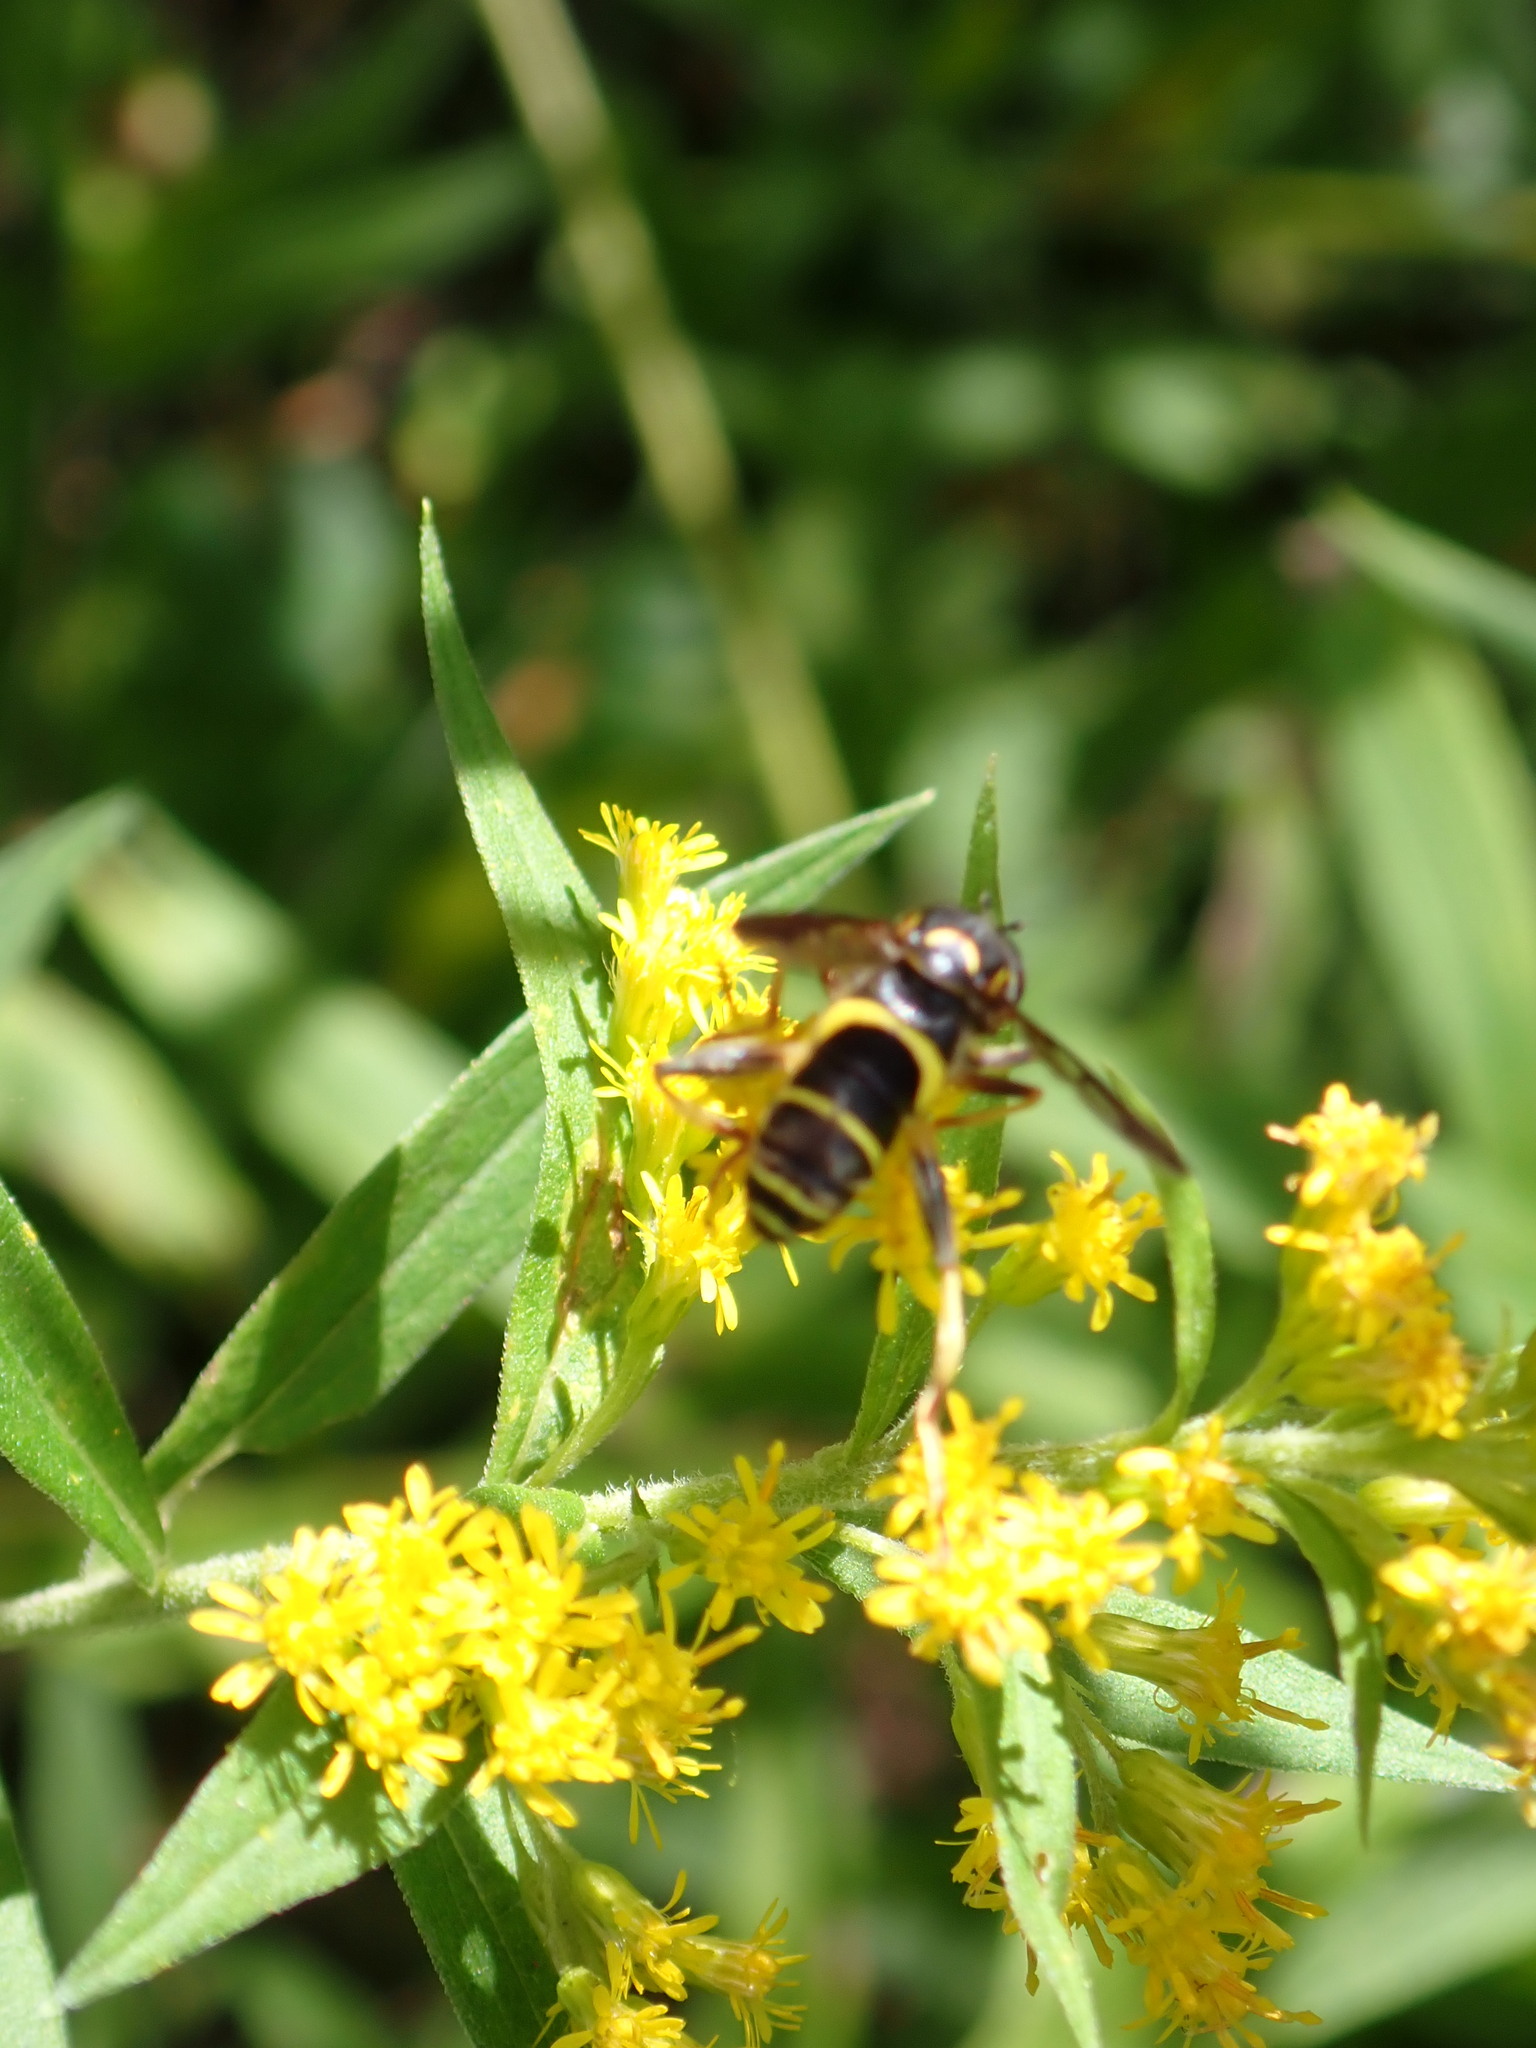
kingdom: Animalia
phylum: Arthropoda
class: Insecta
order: Diptera
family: Syrphidae
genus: Spilomyia
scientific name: Spilomyia sayi
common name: Four-lined hornet fly
